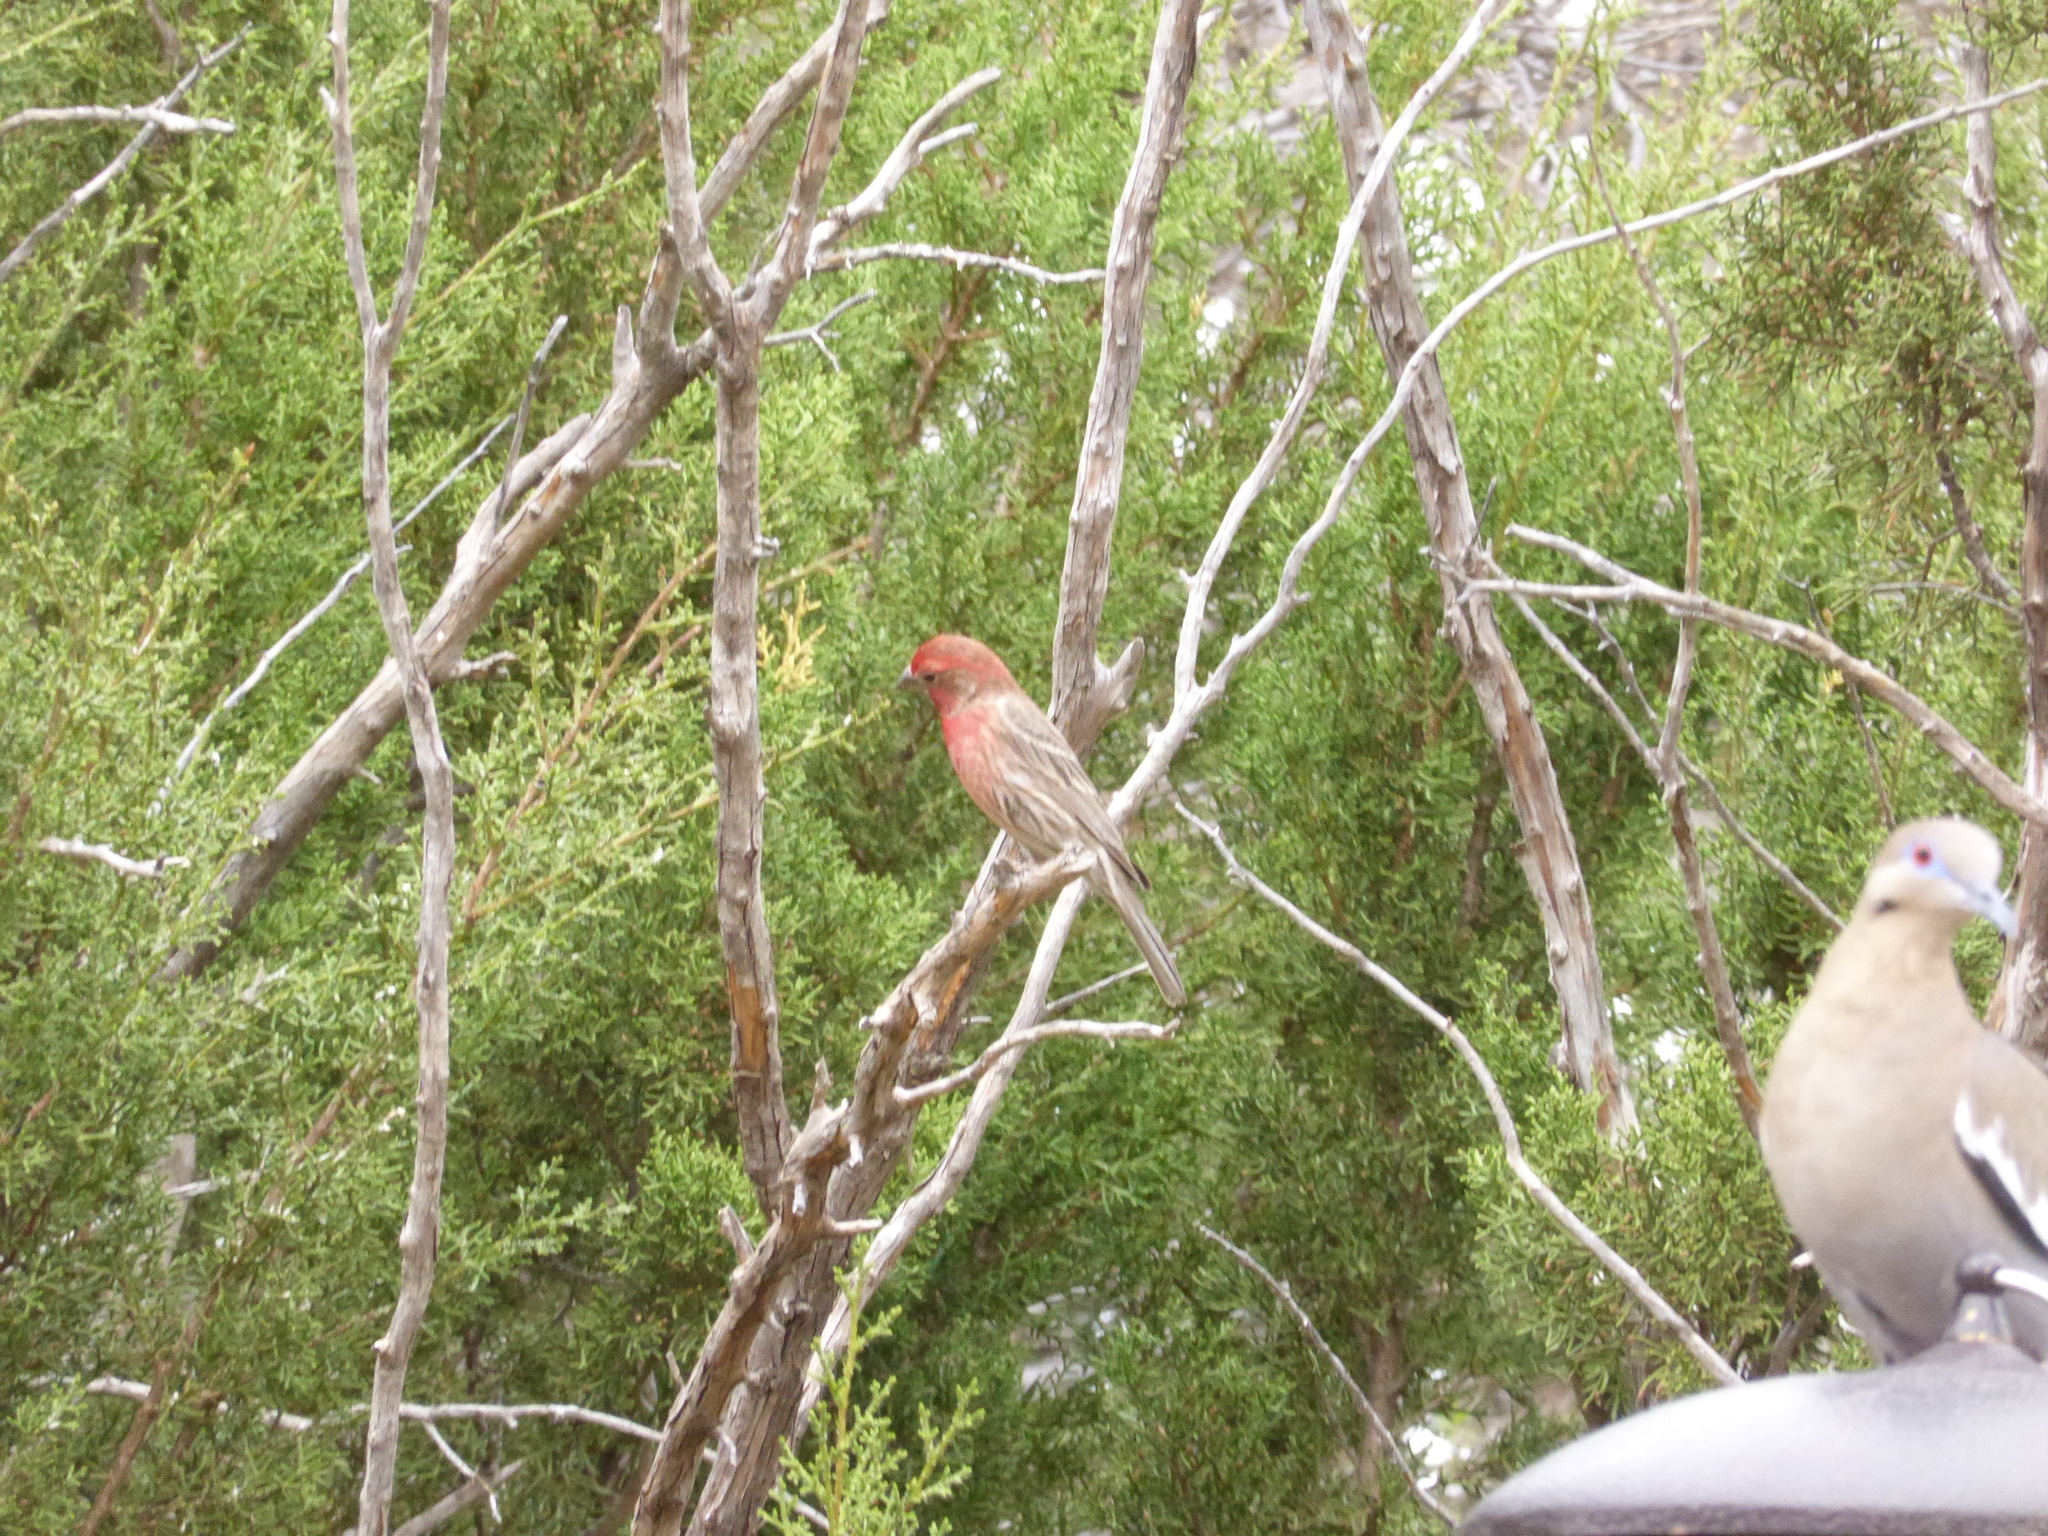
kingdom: Animalia
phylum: Chordata
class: Aves
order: Passeriformes
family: Fringillidae
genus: Haemorhous
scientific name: Haemorhous mexicanus
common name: House finch
